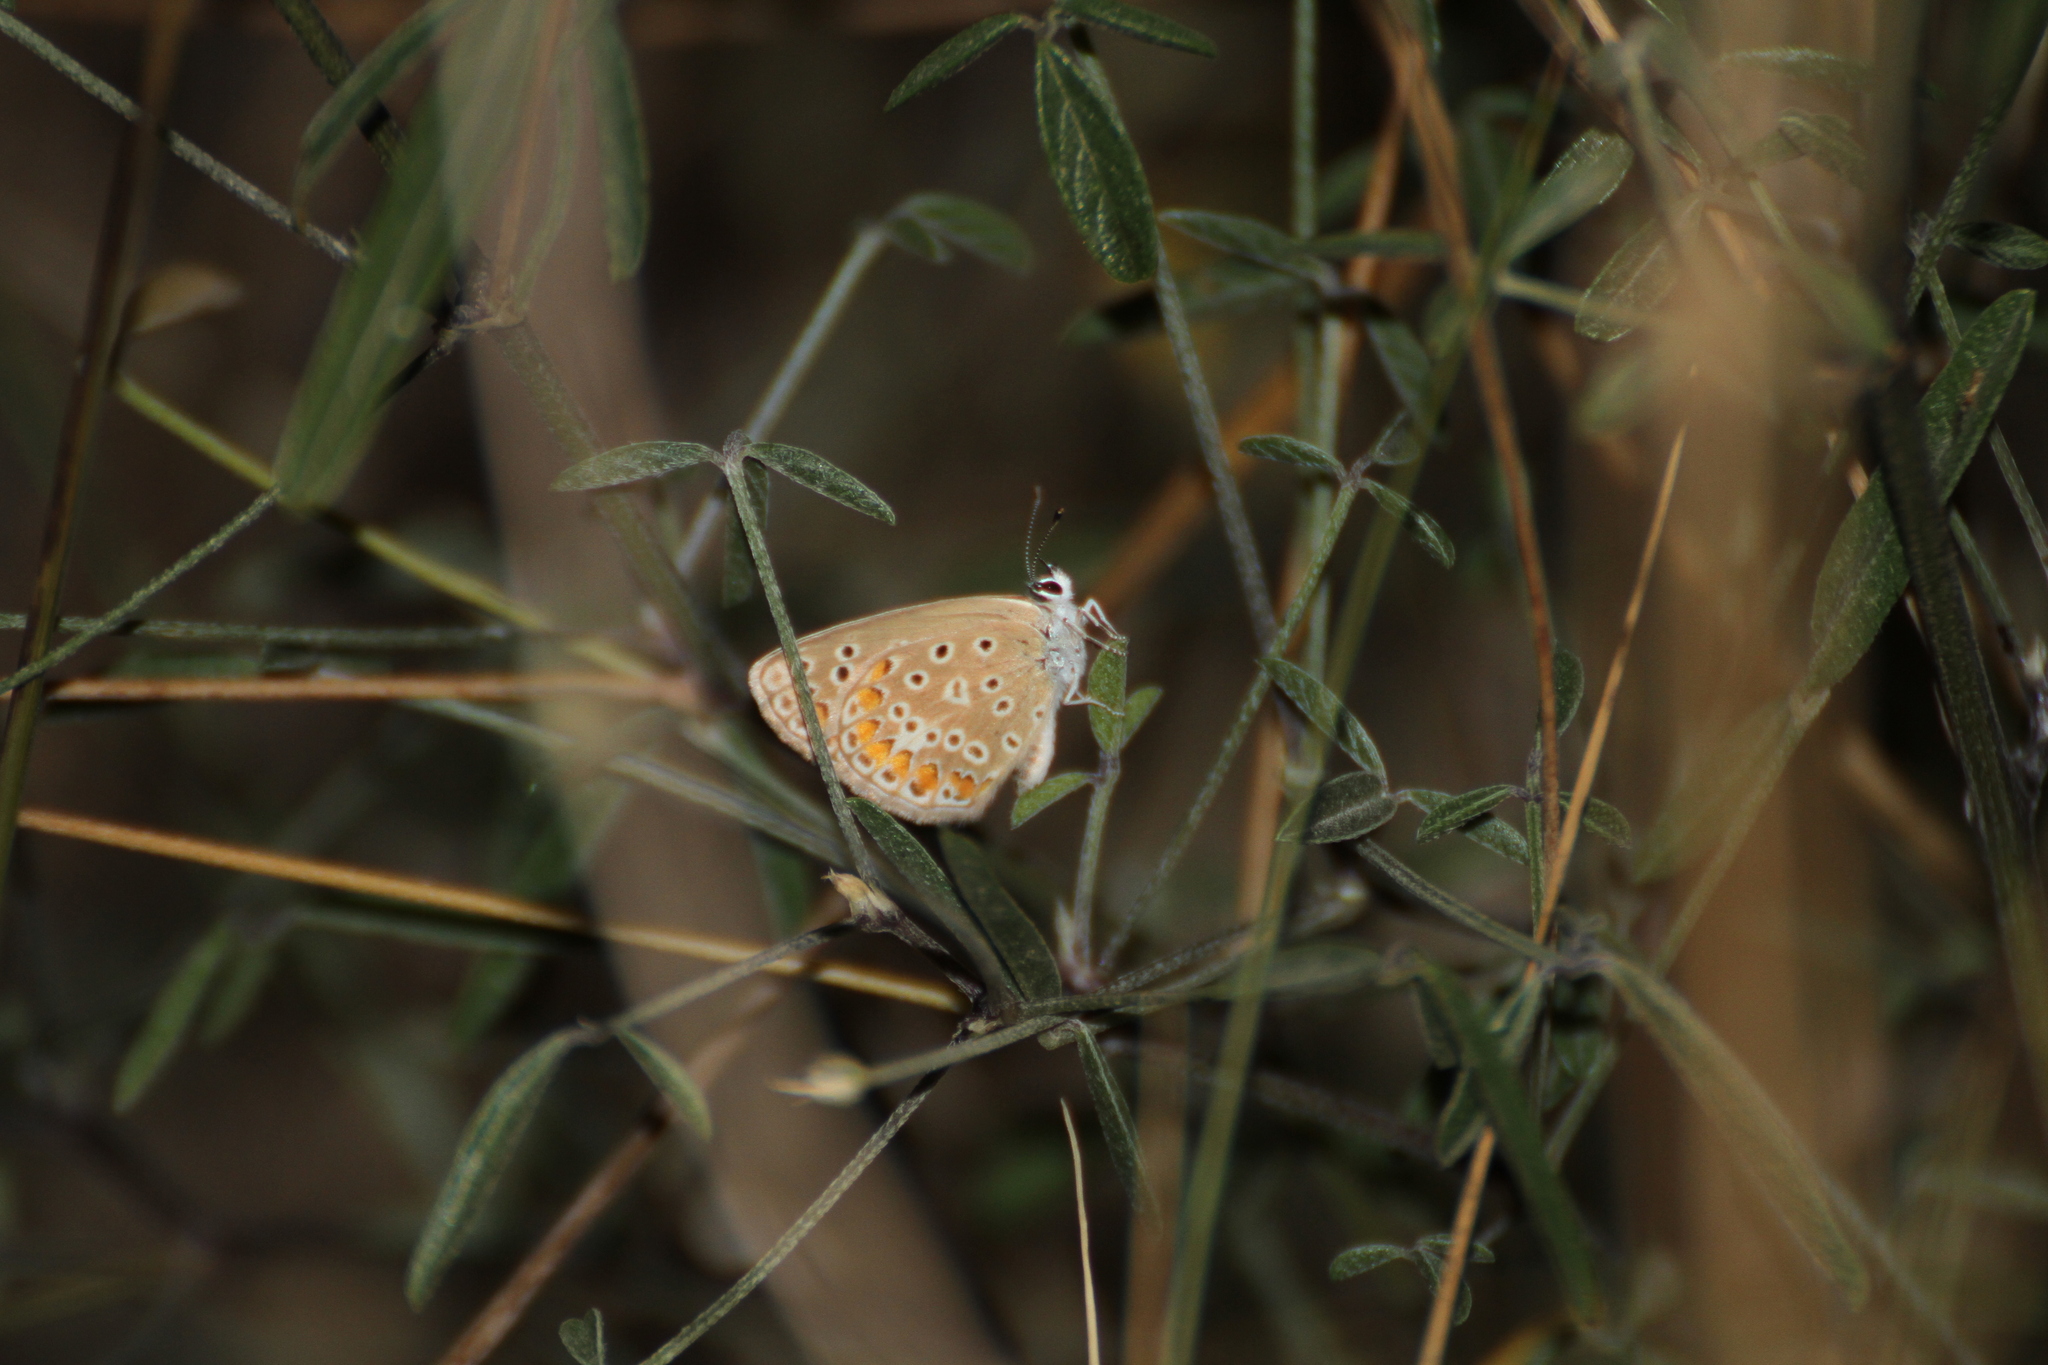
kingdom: Animalia
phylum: Arthropoda
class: Insecta
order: Lepidoptera
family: Lycaenidae
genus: Aricia
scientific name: Aricia agestis
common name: Brown argus
